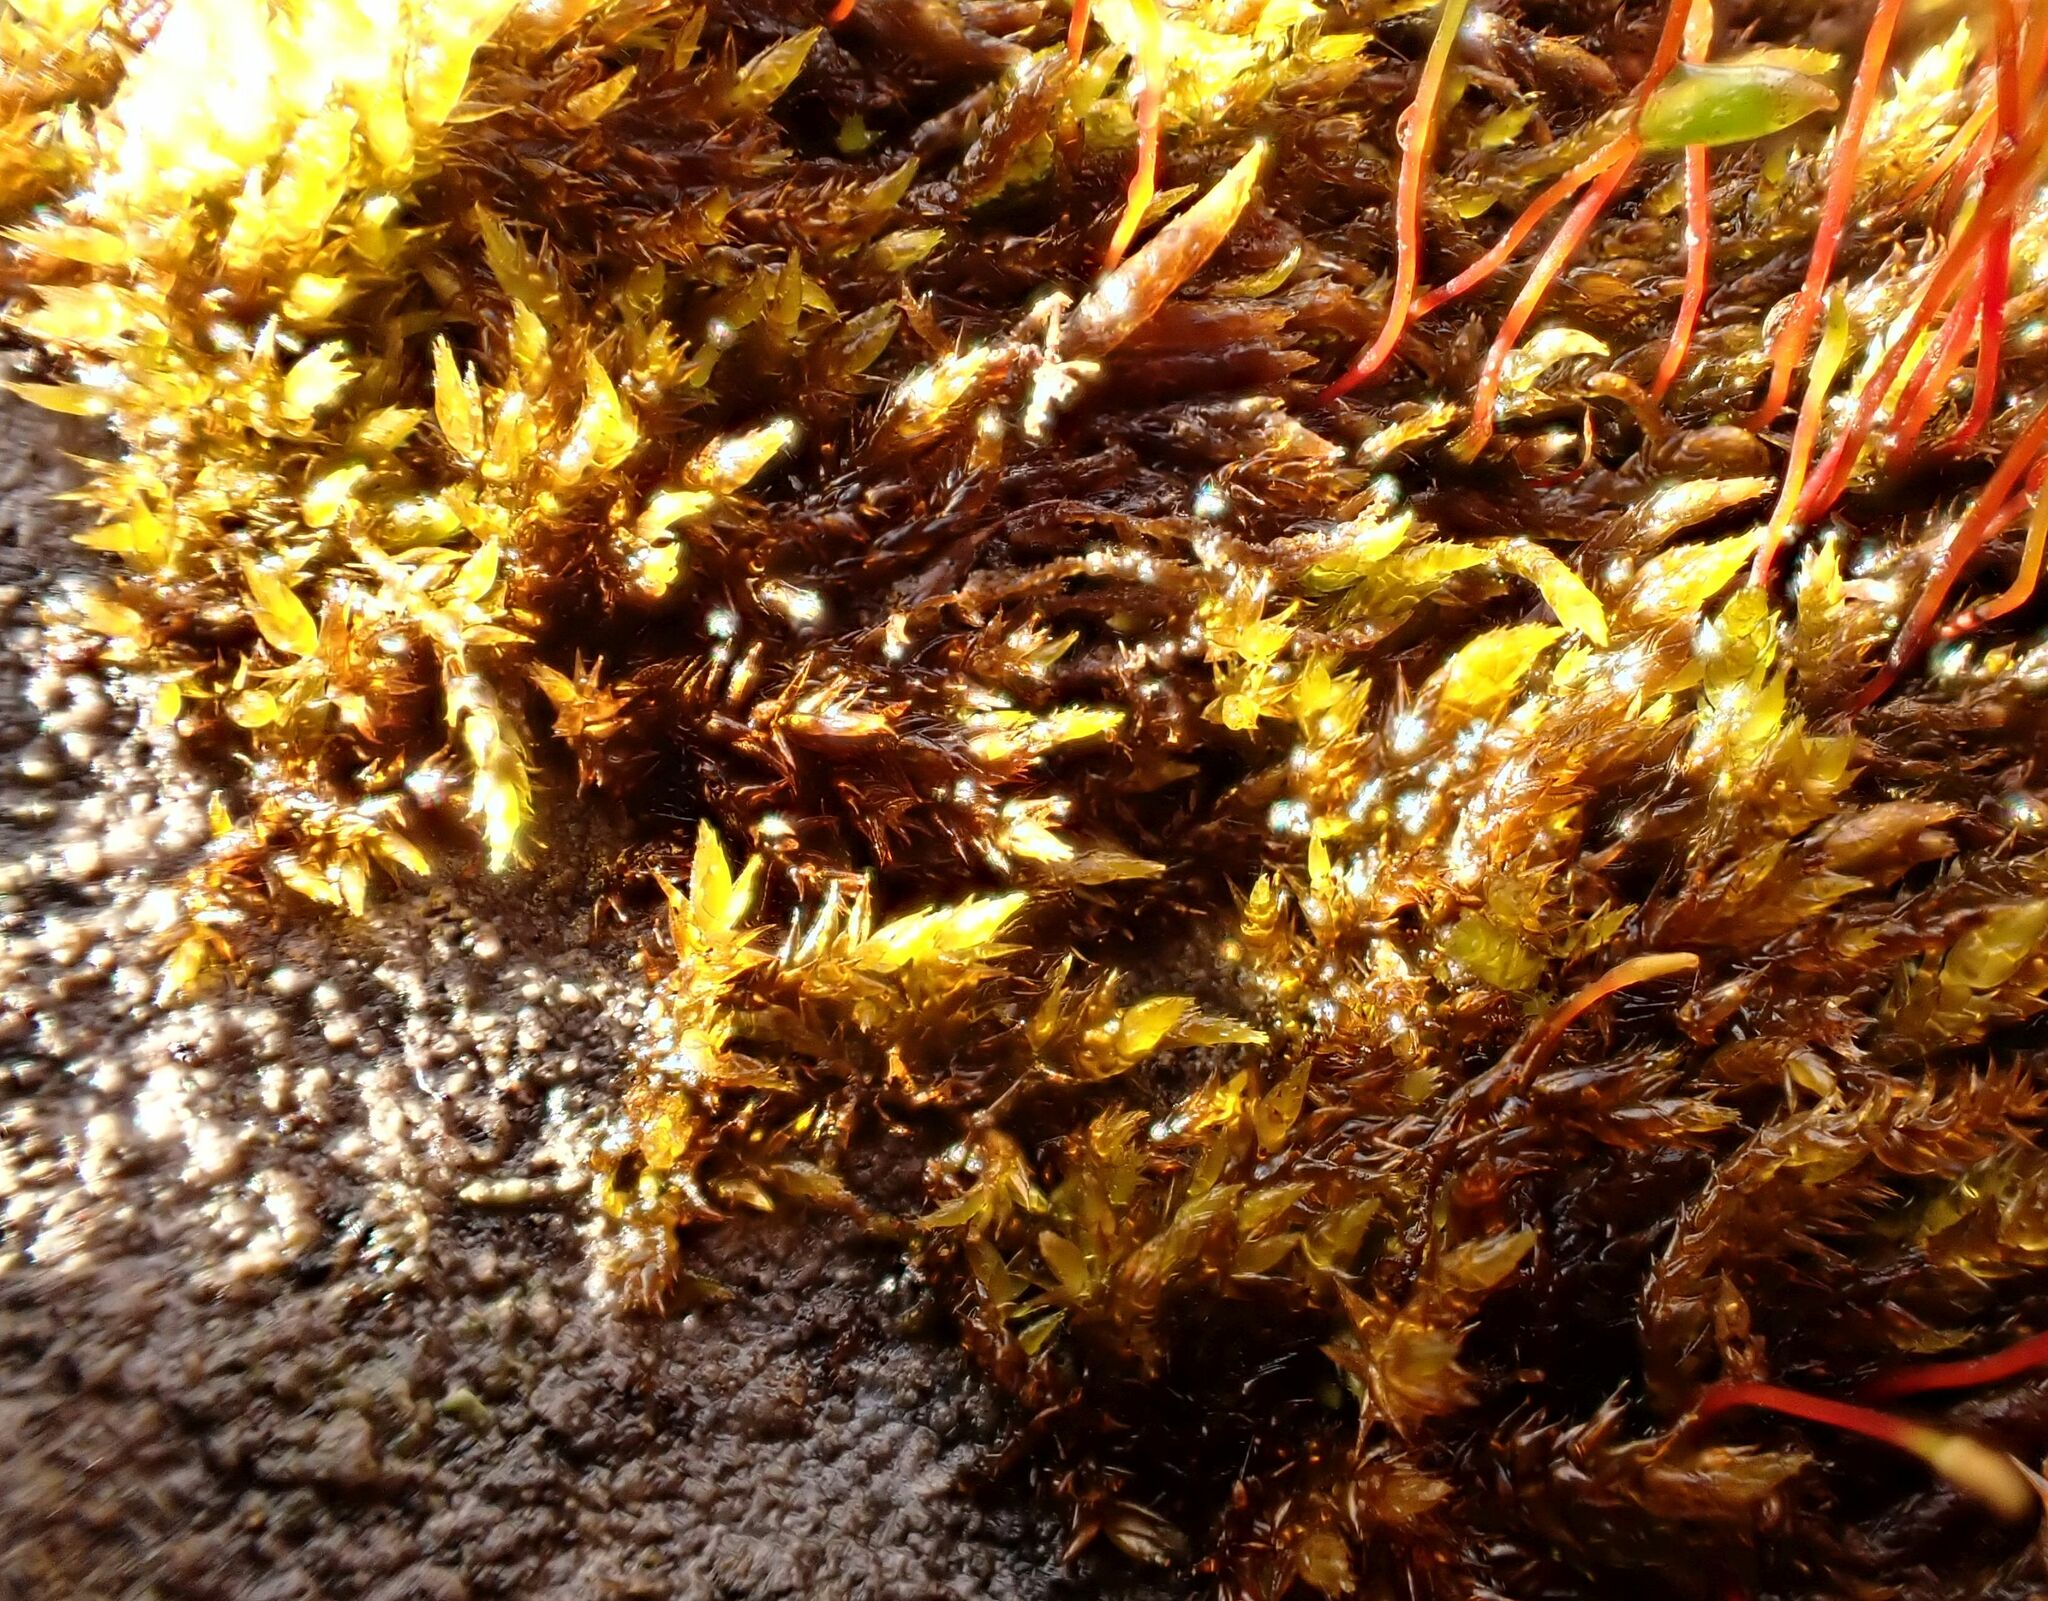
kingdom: Plantae
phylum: Bryophyta
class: Bryopsida
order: Hypnales
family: Amblystegiaceae
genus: Hygrohypnum
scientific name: Hygrohypnum luridum
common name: Drab brook moss
